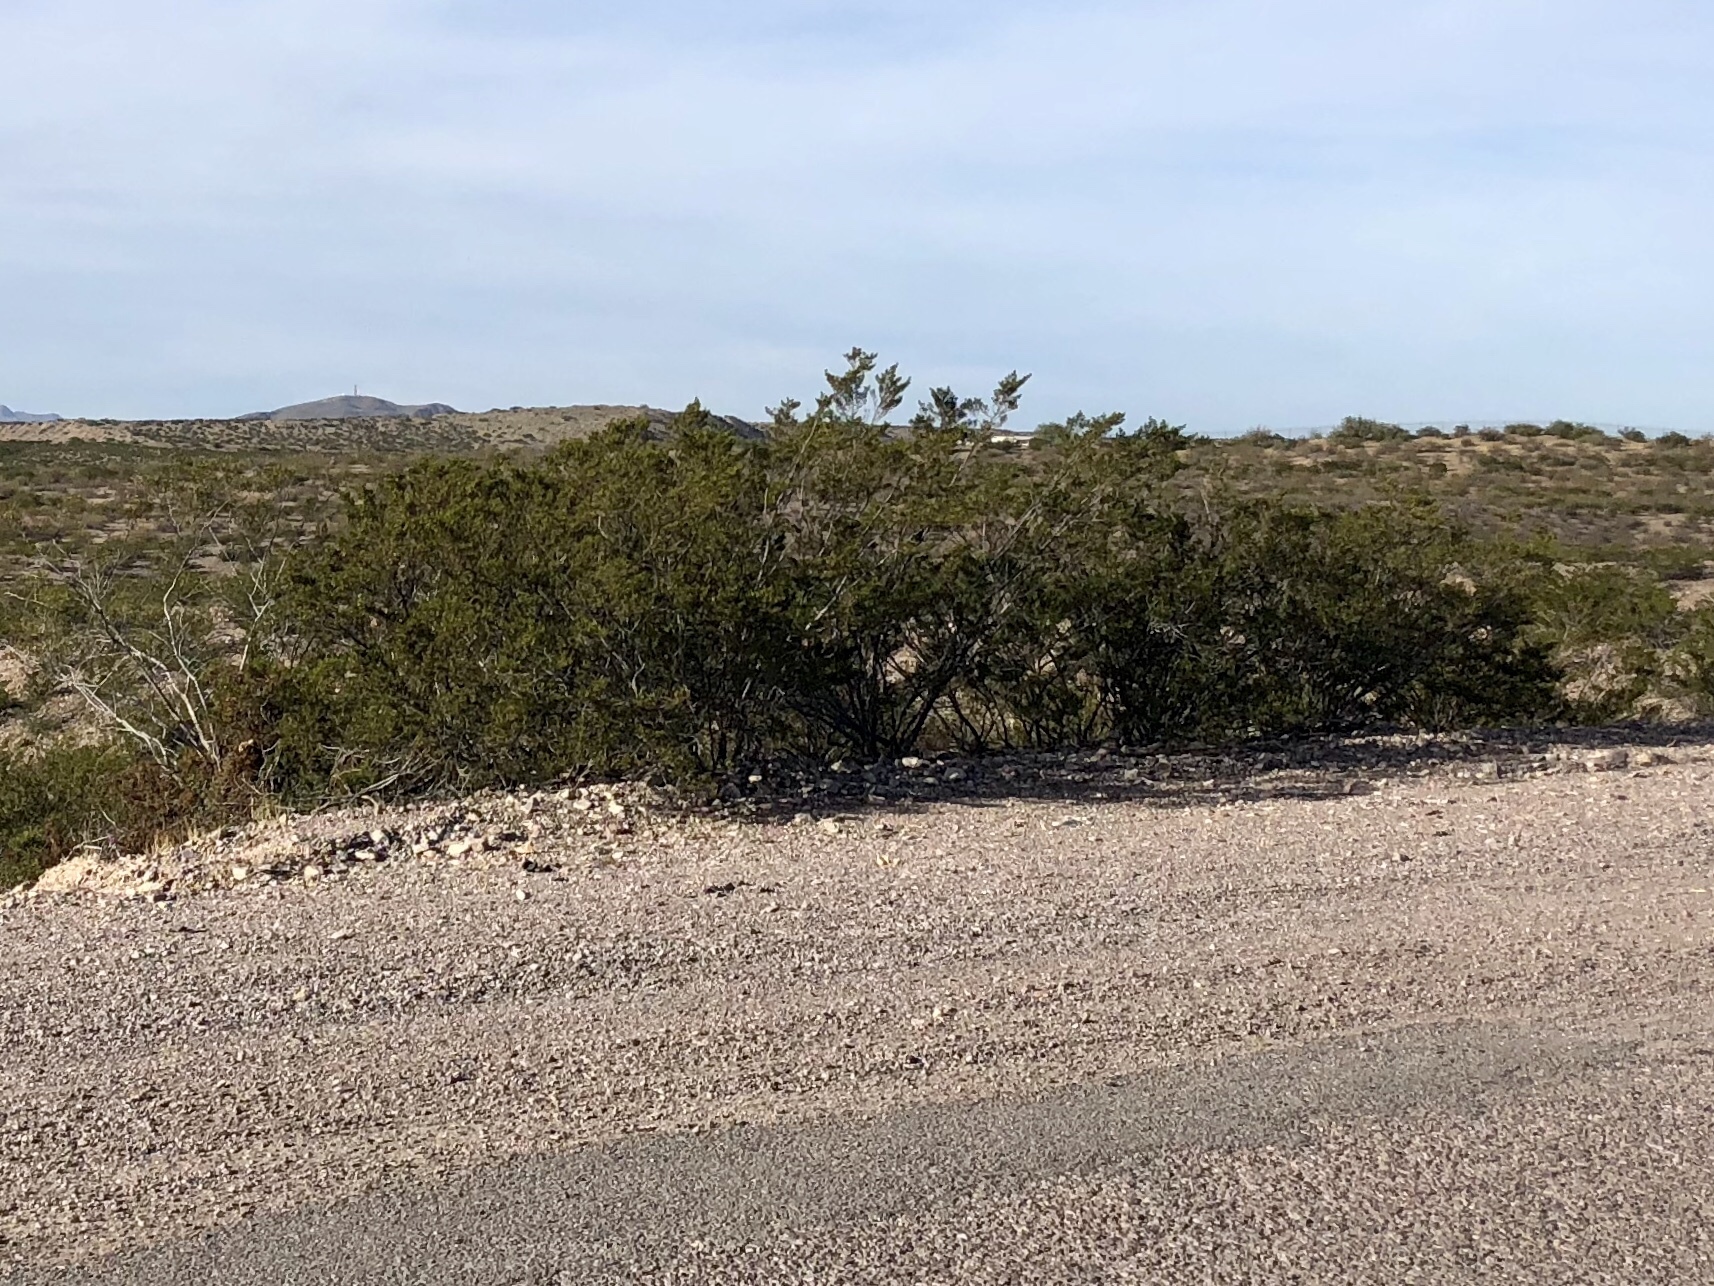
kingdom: Plantae
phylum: Tracheophyta
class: Magnoliopsida
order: Zygophyllales
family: Zygophyllaceae
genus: Larrea
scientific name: Larrea tridentata
